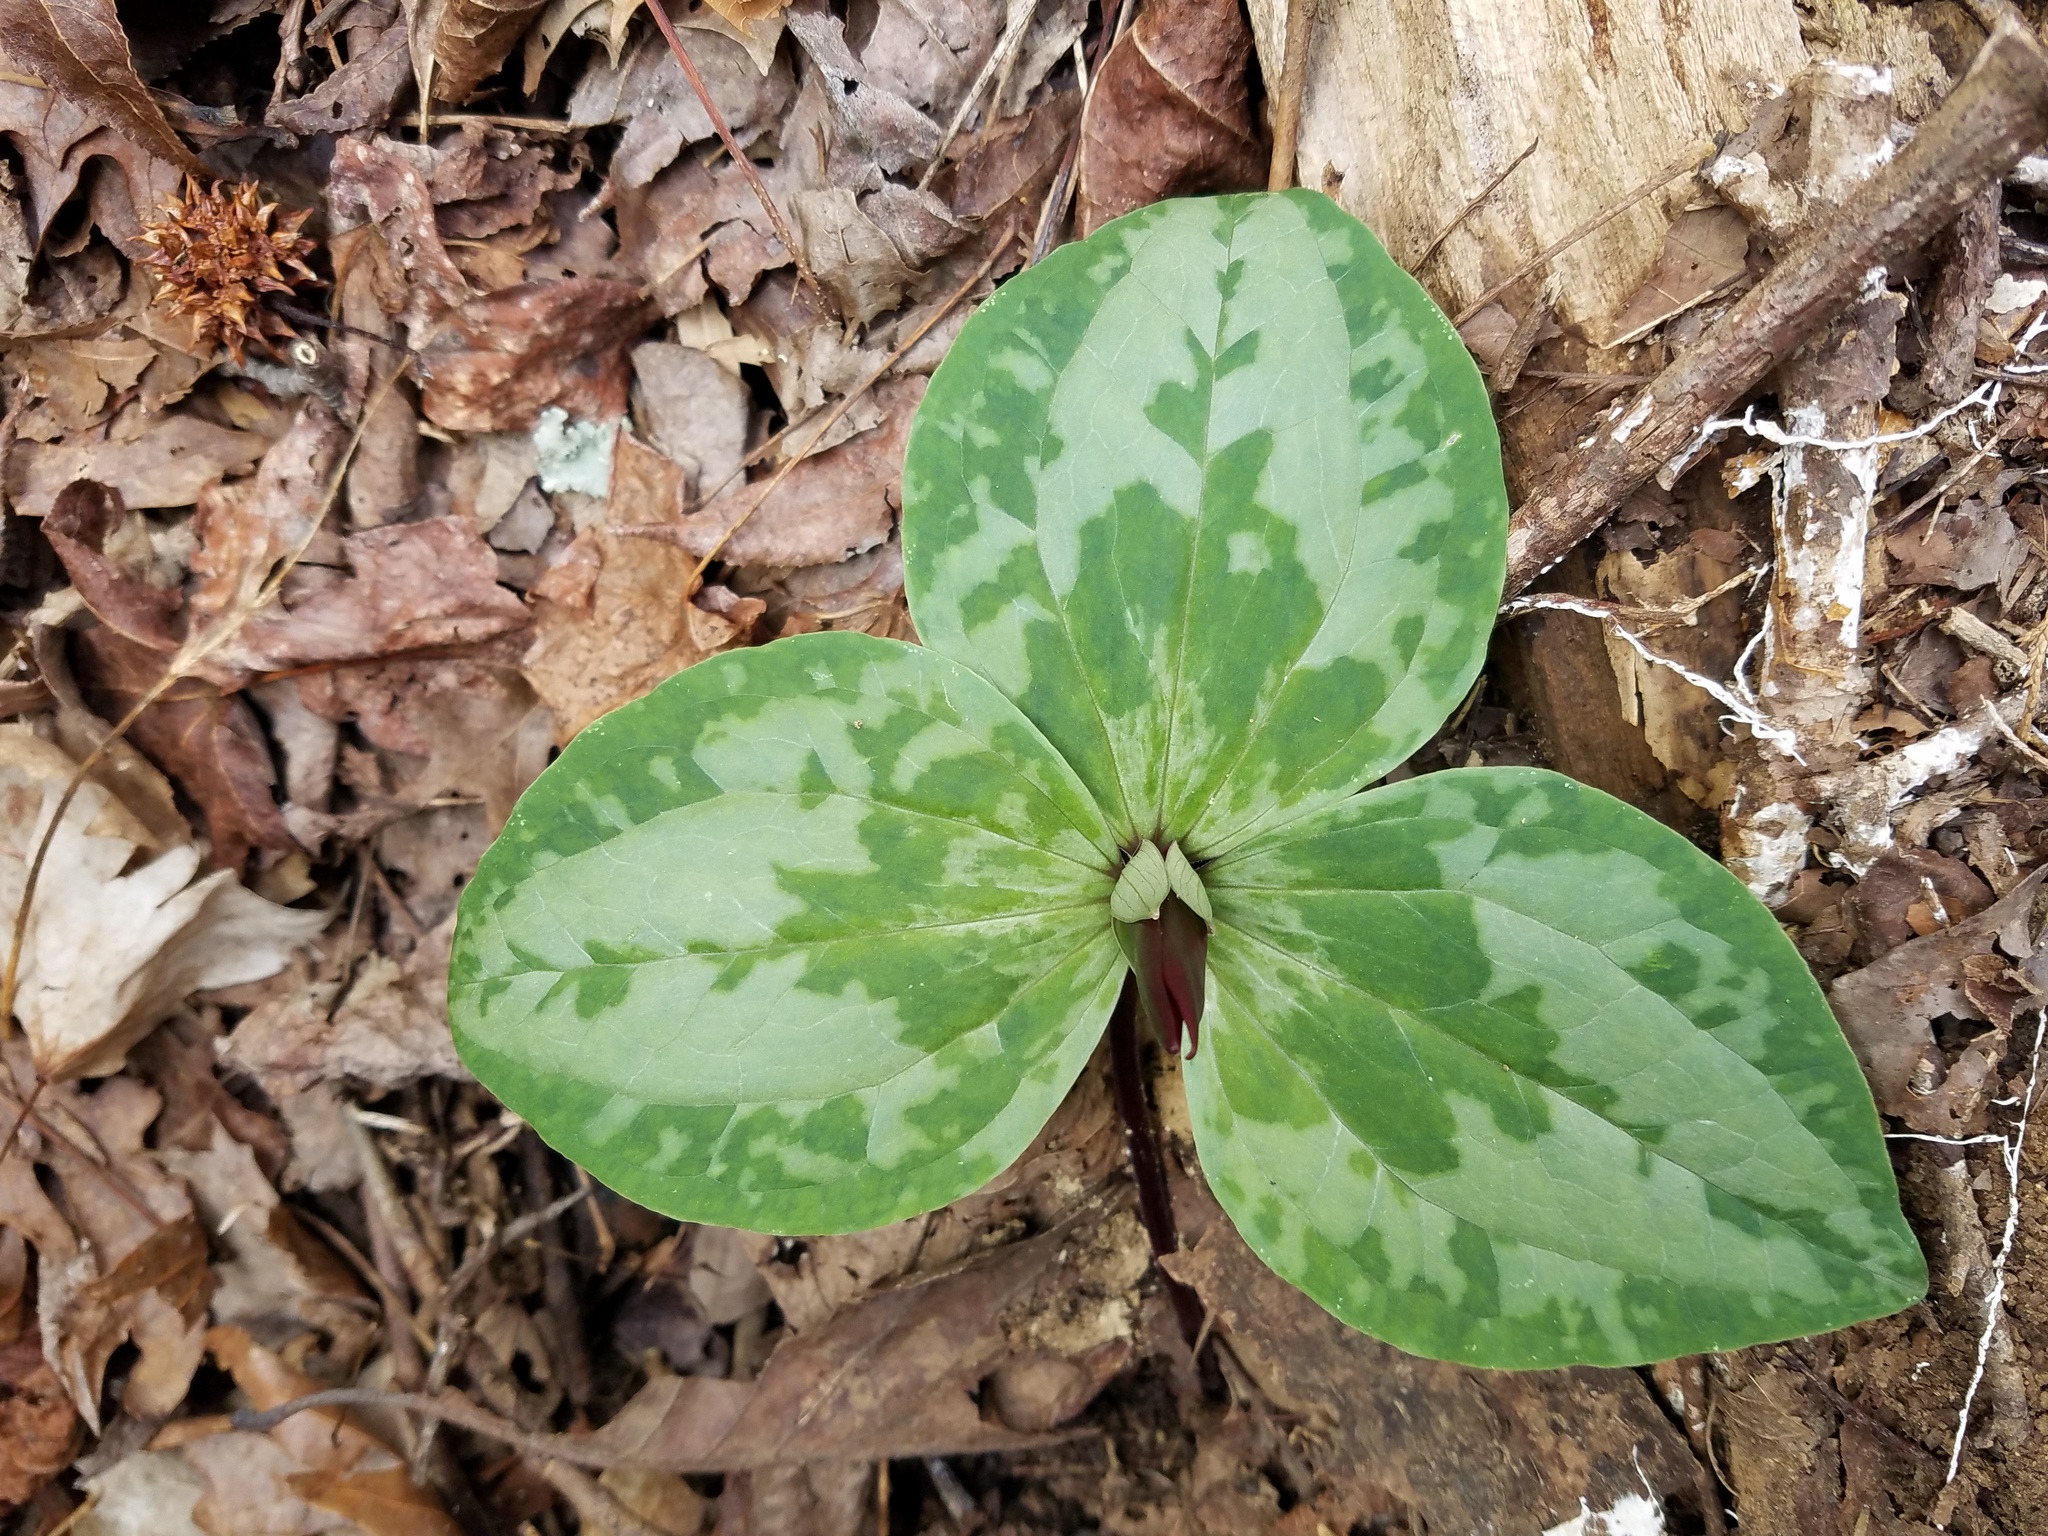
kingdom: Plantae
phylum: Tracheophyta
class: Liliopsida
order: Liliales
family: Melanthiaceae
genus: Trillium
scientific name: Trillium decumbens
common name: Decumbent trillium
